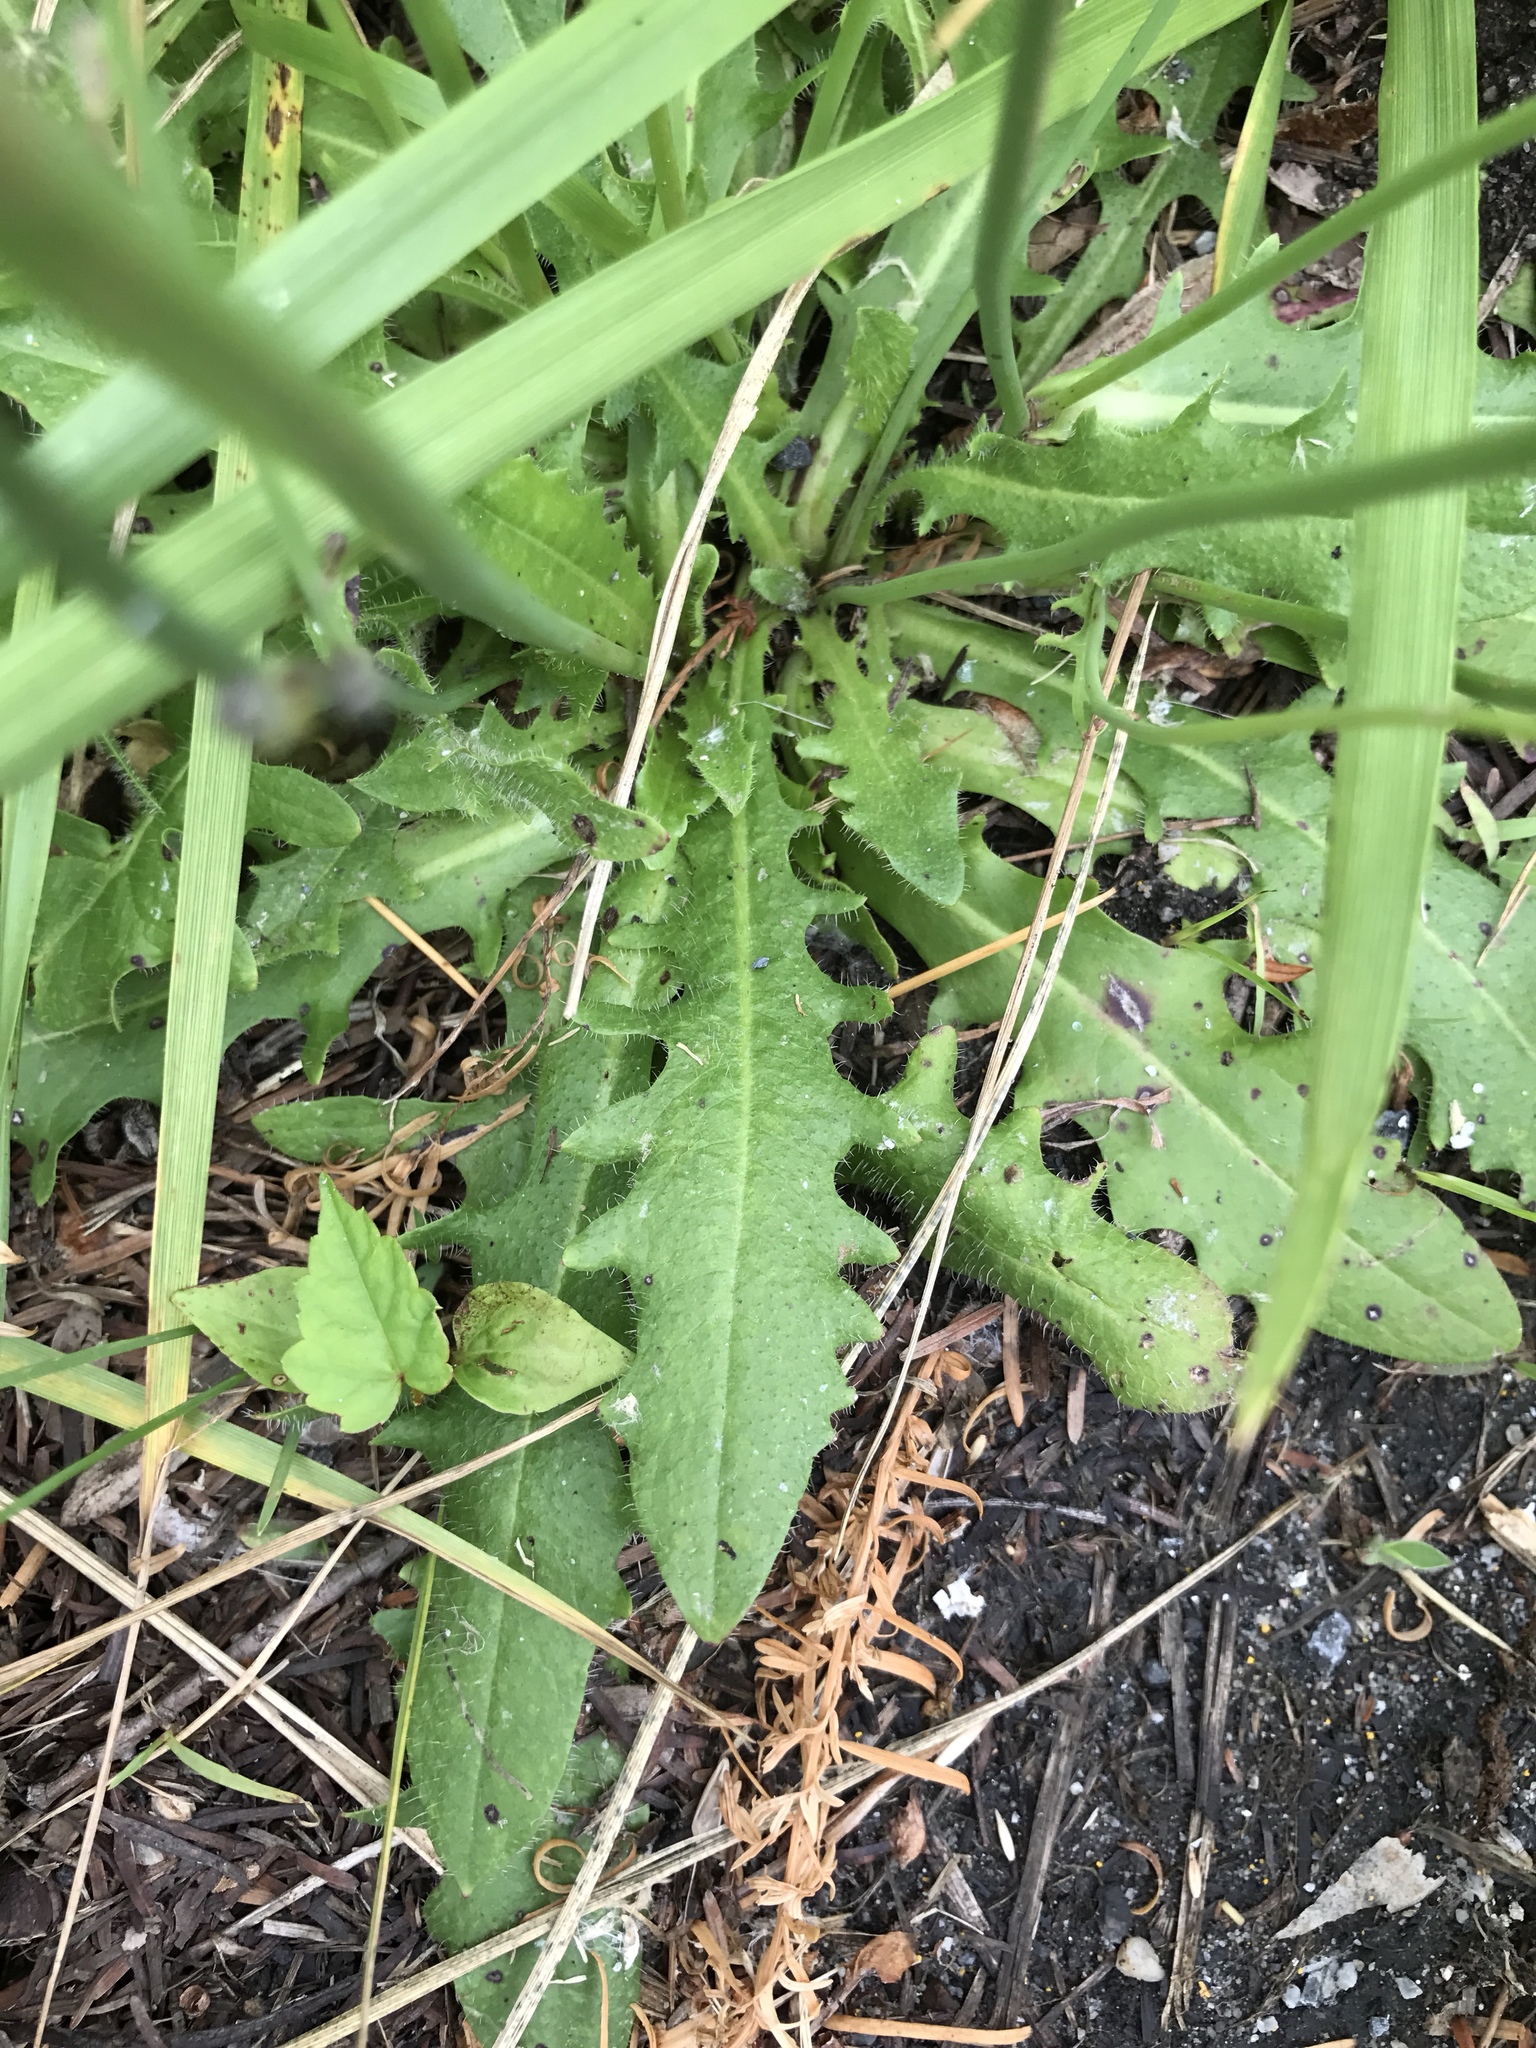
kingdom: Plantae
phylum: Tracheophyta
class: Magnoliopsida
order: Asterales
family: Asteraceae
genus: Hypochaeris
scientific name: Hypochaeris radicata
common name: Flatweed
